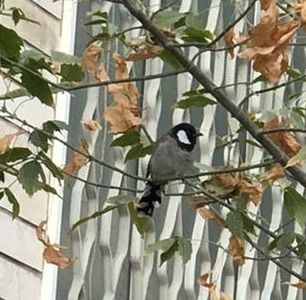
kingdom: Animalia
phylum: Chordata
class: Aves
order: Passeriformes
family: Pycnonotidae
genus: Pycnonotus
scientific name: Pycnonotus leucotis
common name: White-eared bulbul
